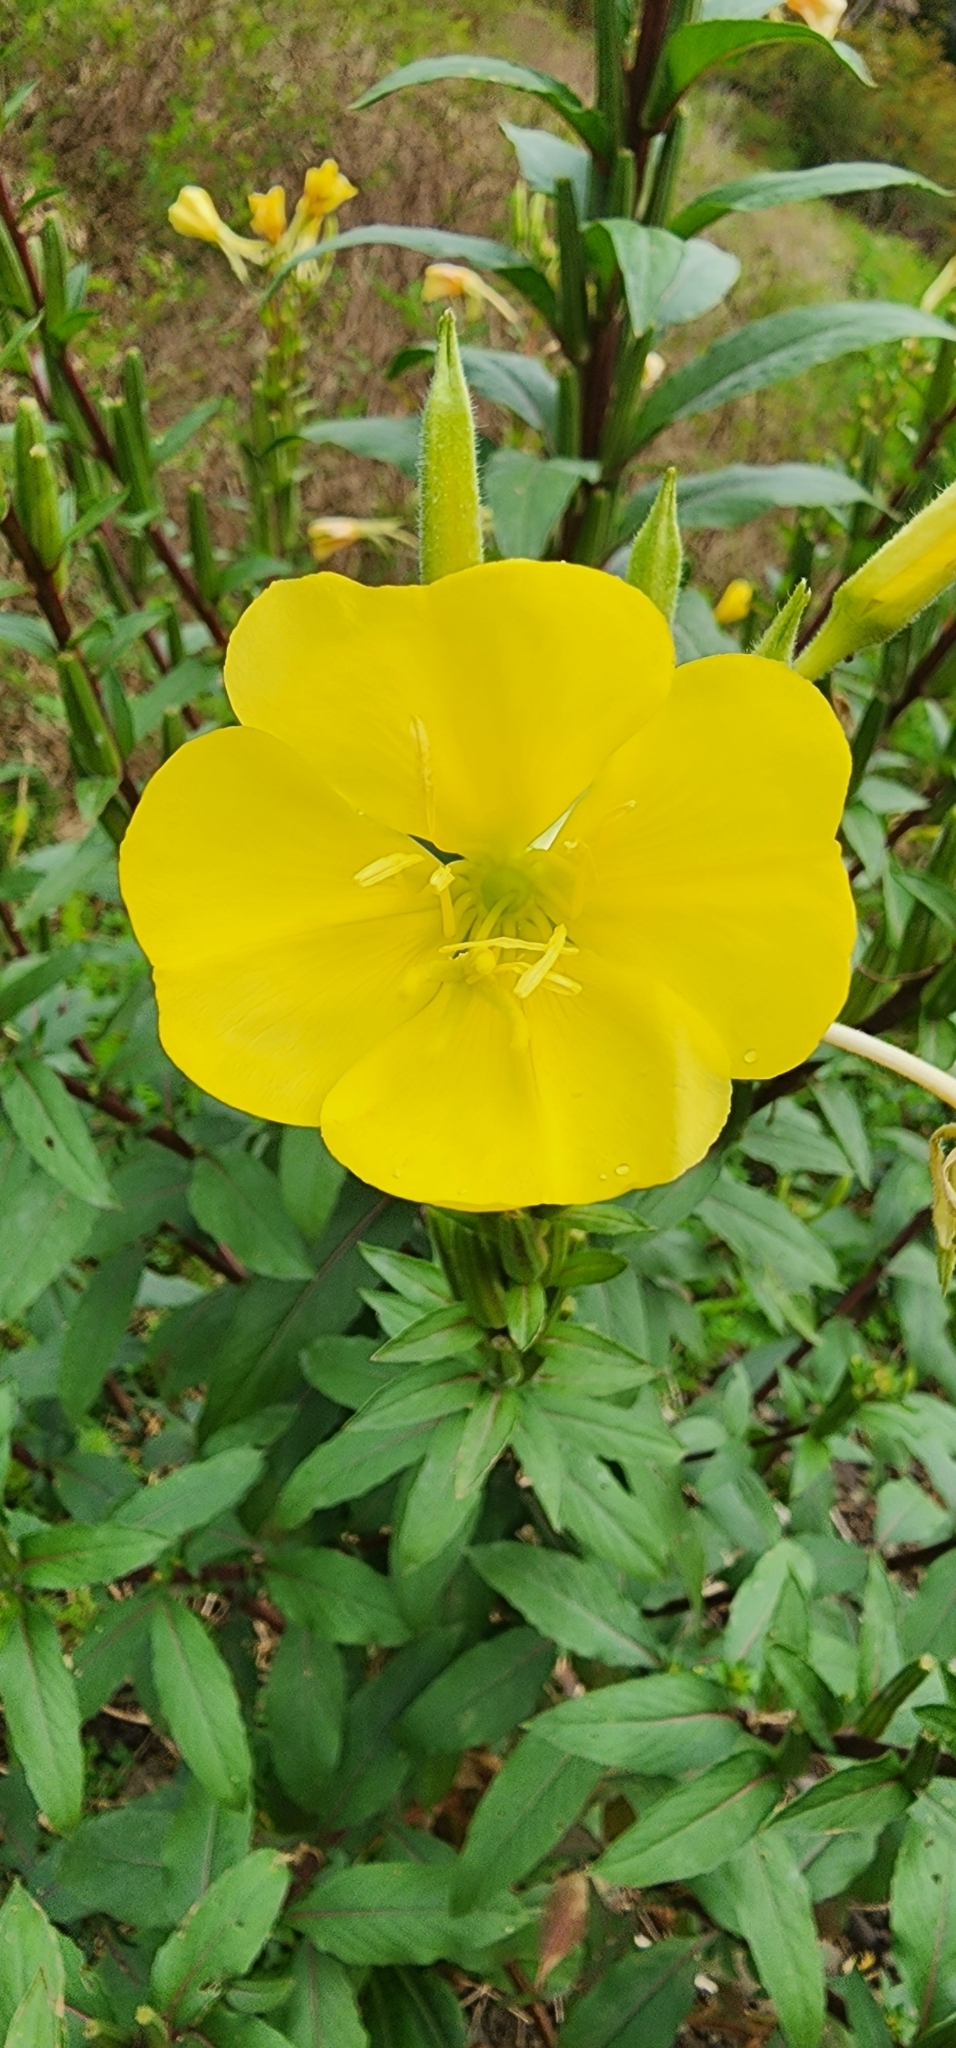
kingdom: Plantae
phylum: Tracheophyta
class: Magnoliopsida
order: Myrtales
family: Onagraceae
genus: Oenothera
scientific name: Oenothera biennis
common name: Common evening-primrose
